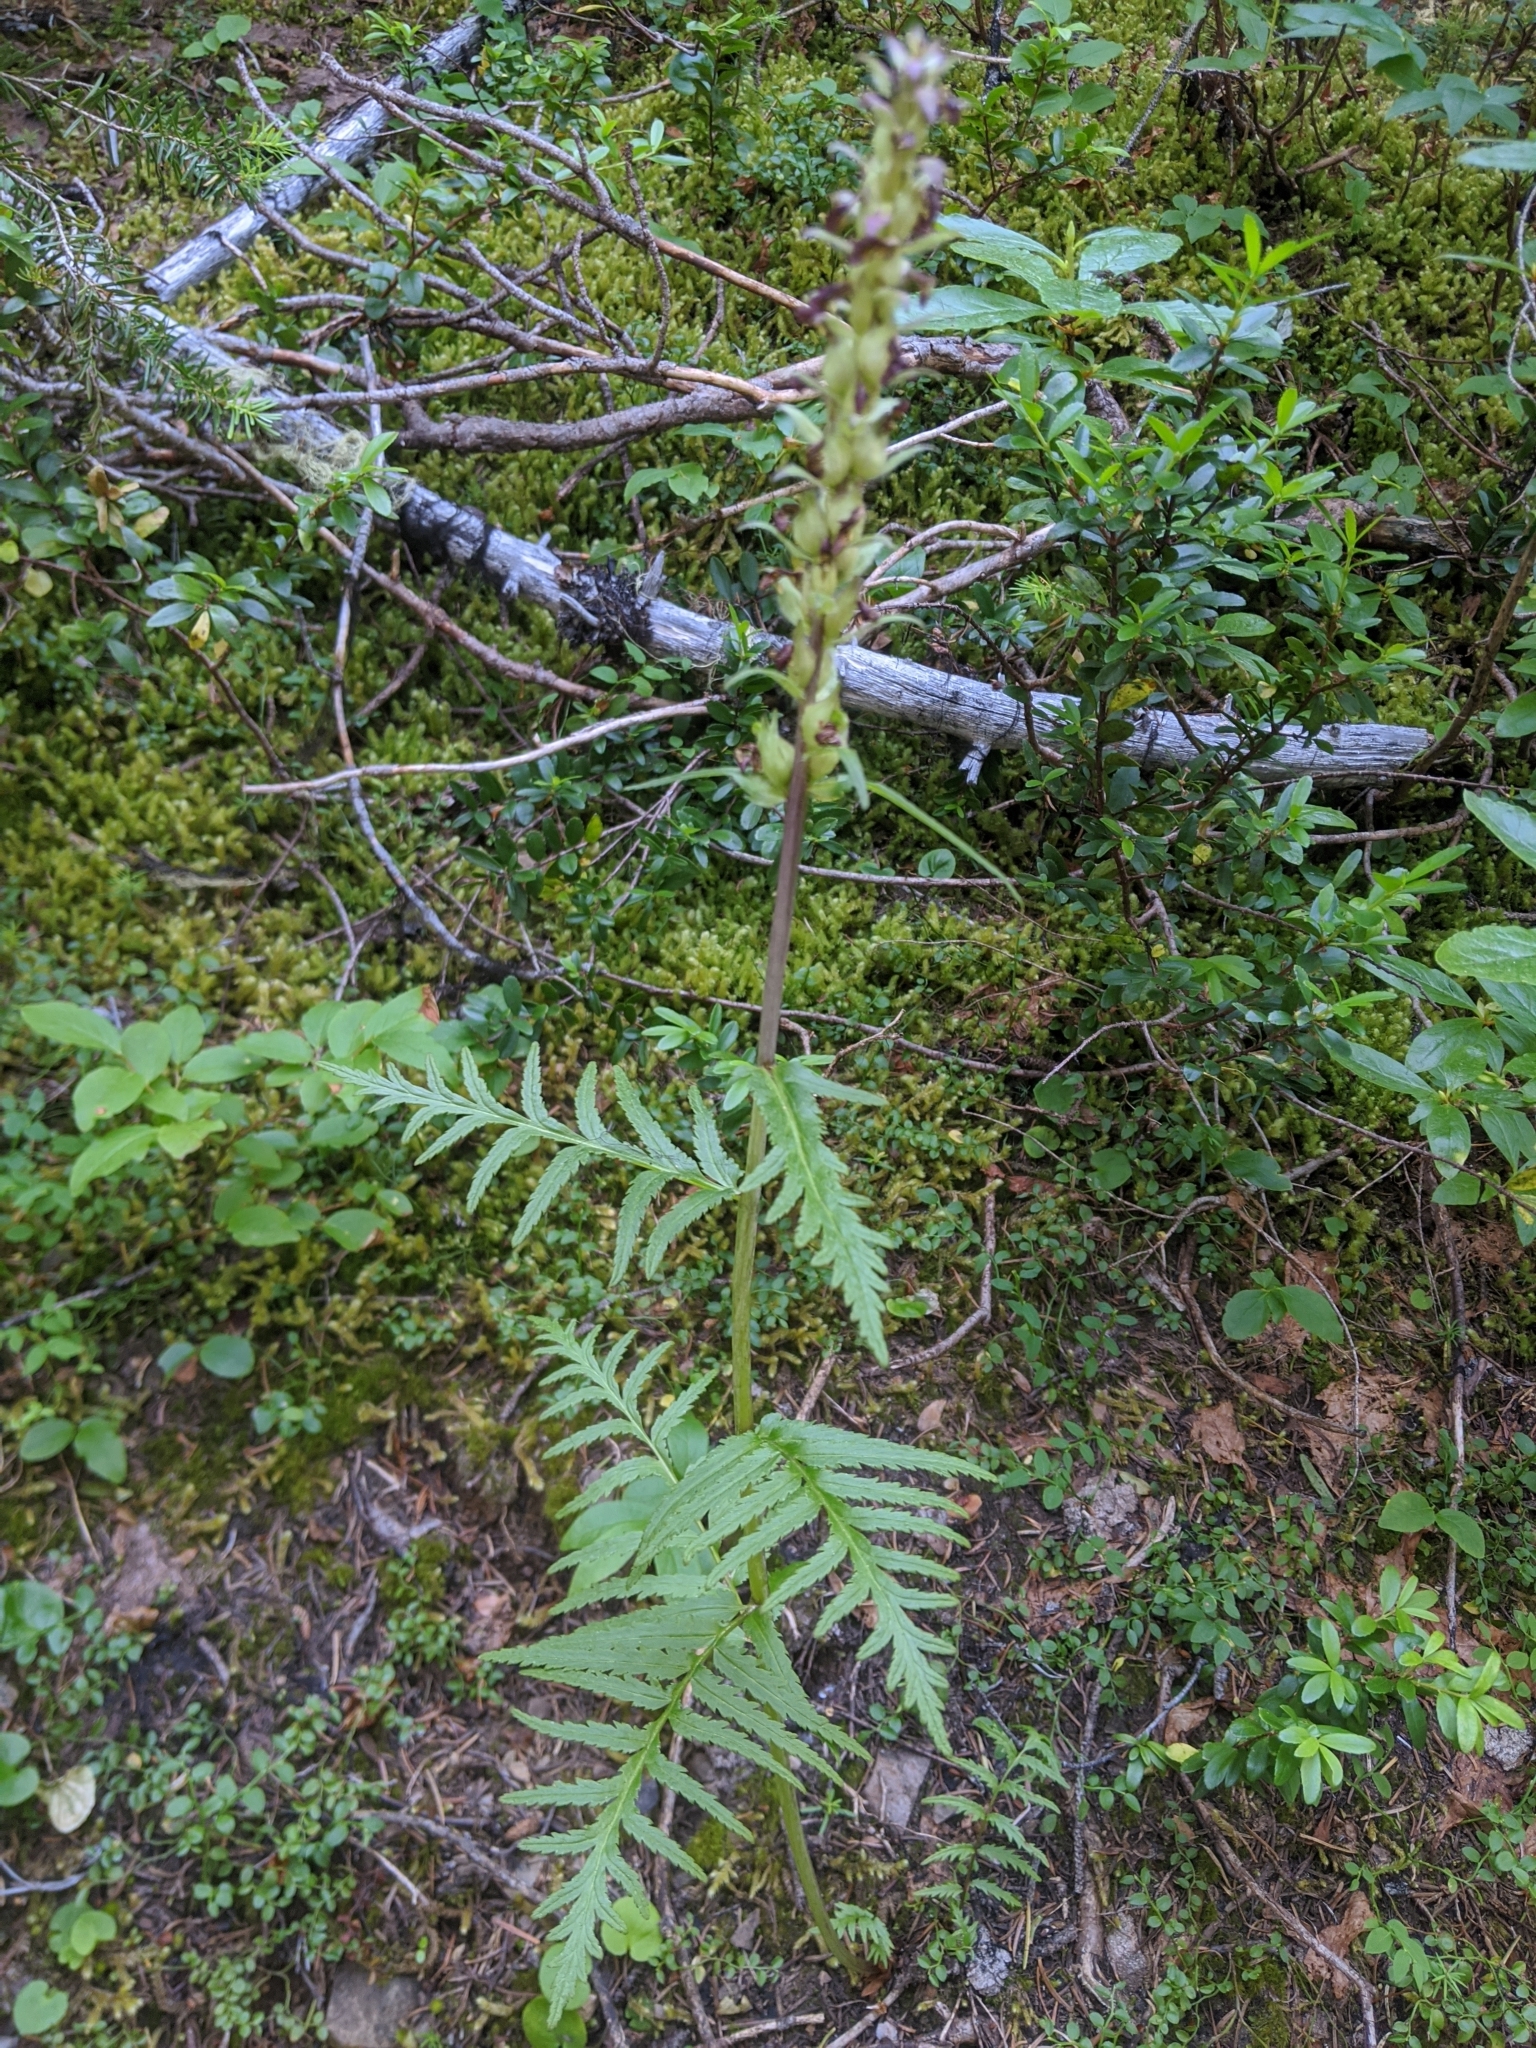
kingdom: Plantae
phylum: Tracheophyta
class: Magnoliopsida
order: Lamiales
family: Orobanchaceae
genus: Pedicularis
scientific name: Pedicularis bracteosa
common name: Bracted lousewort
